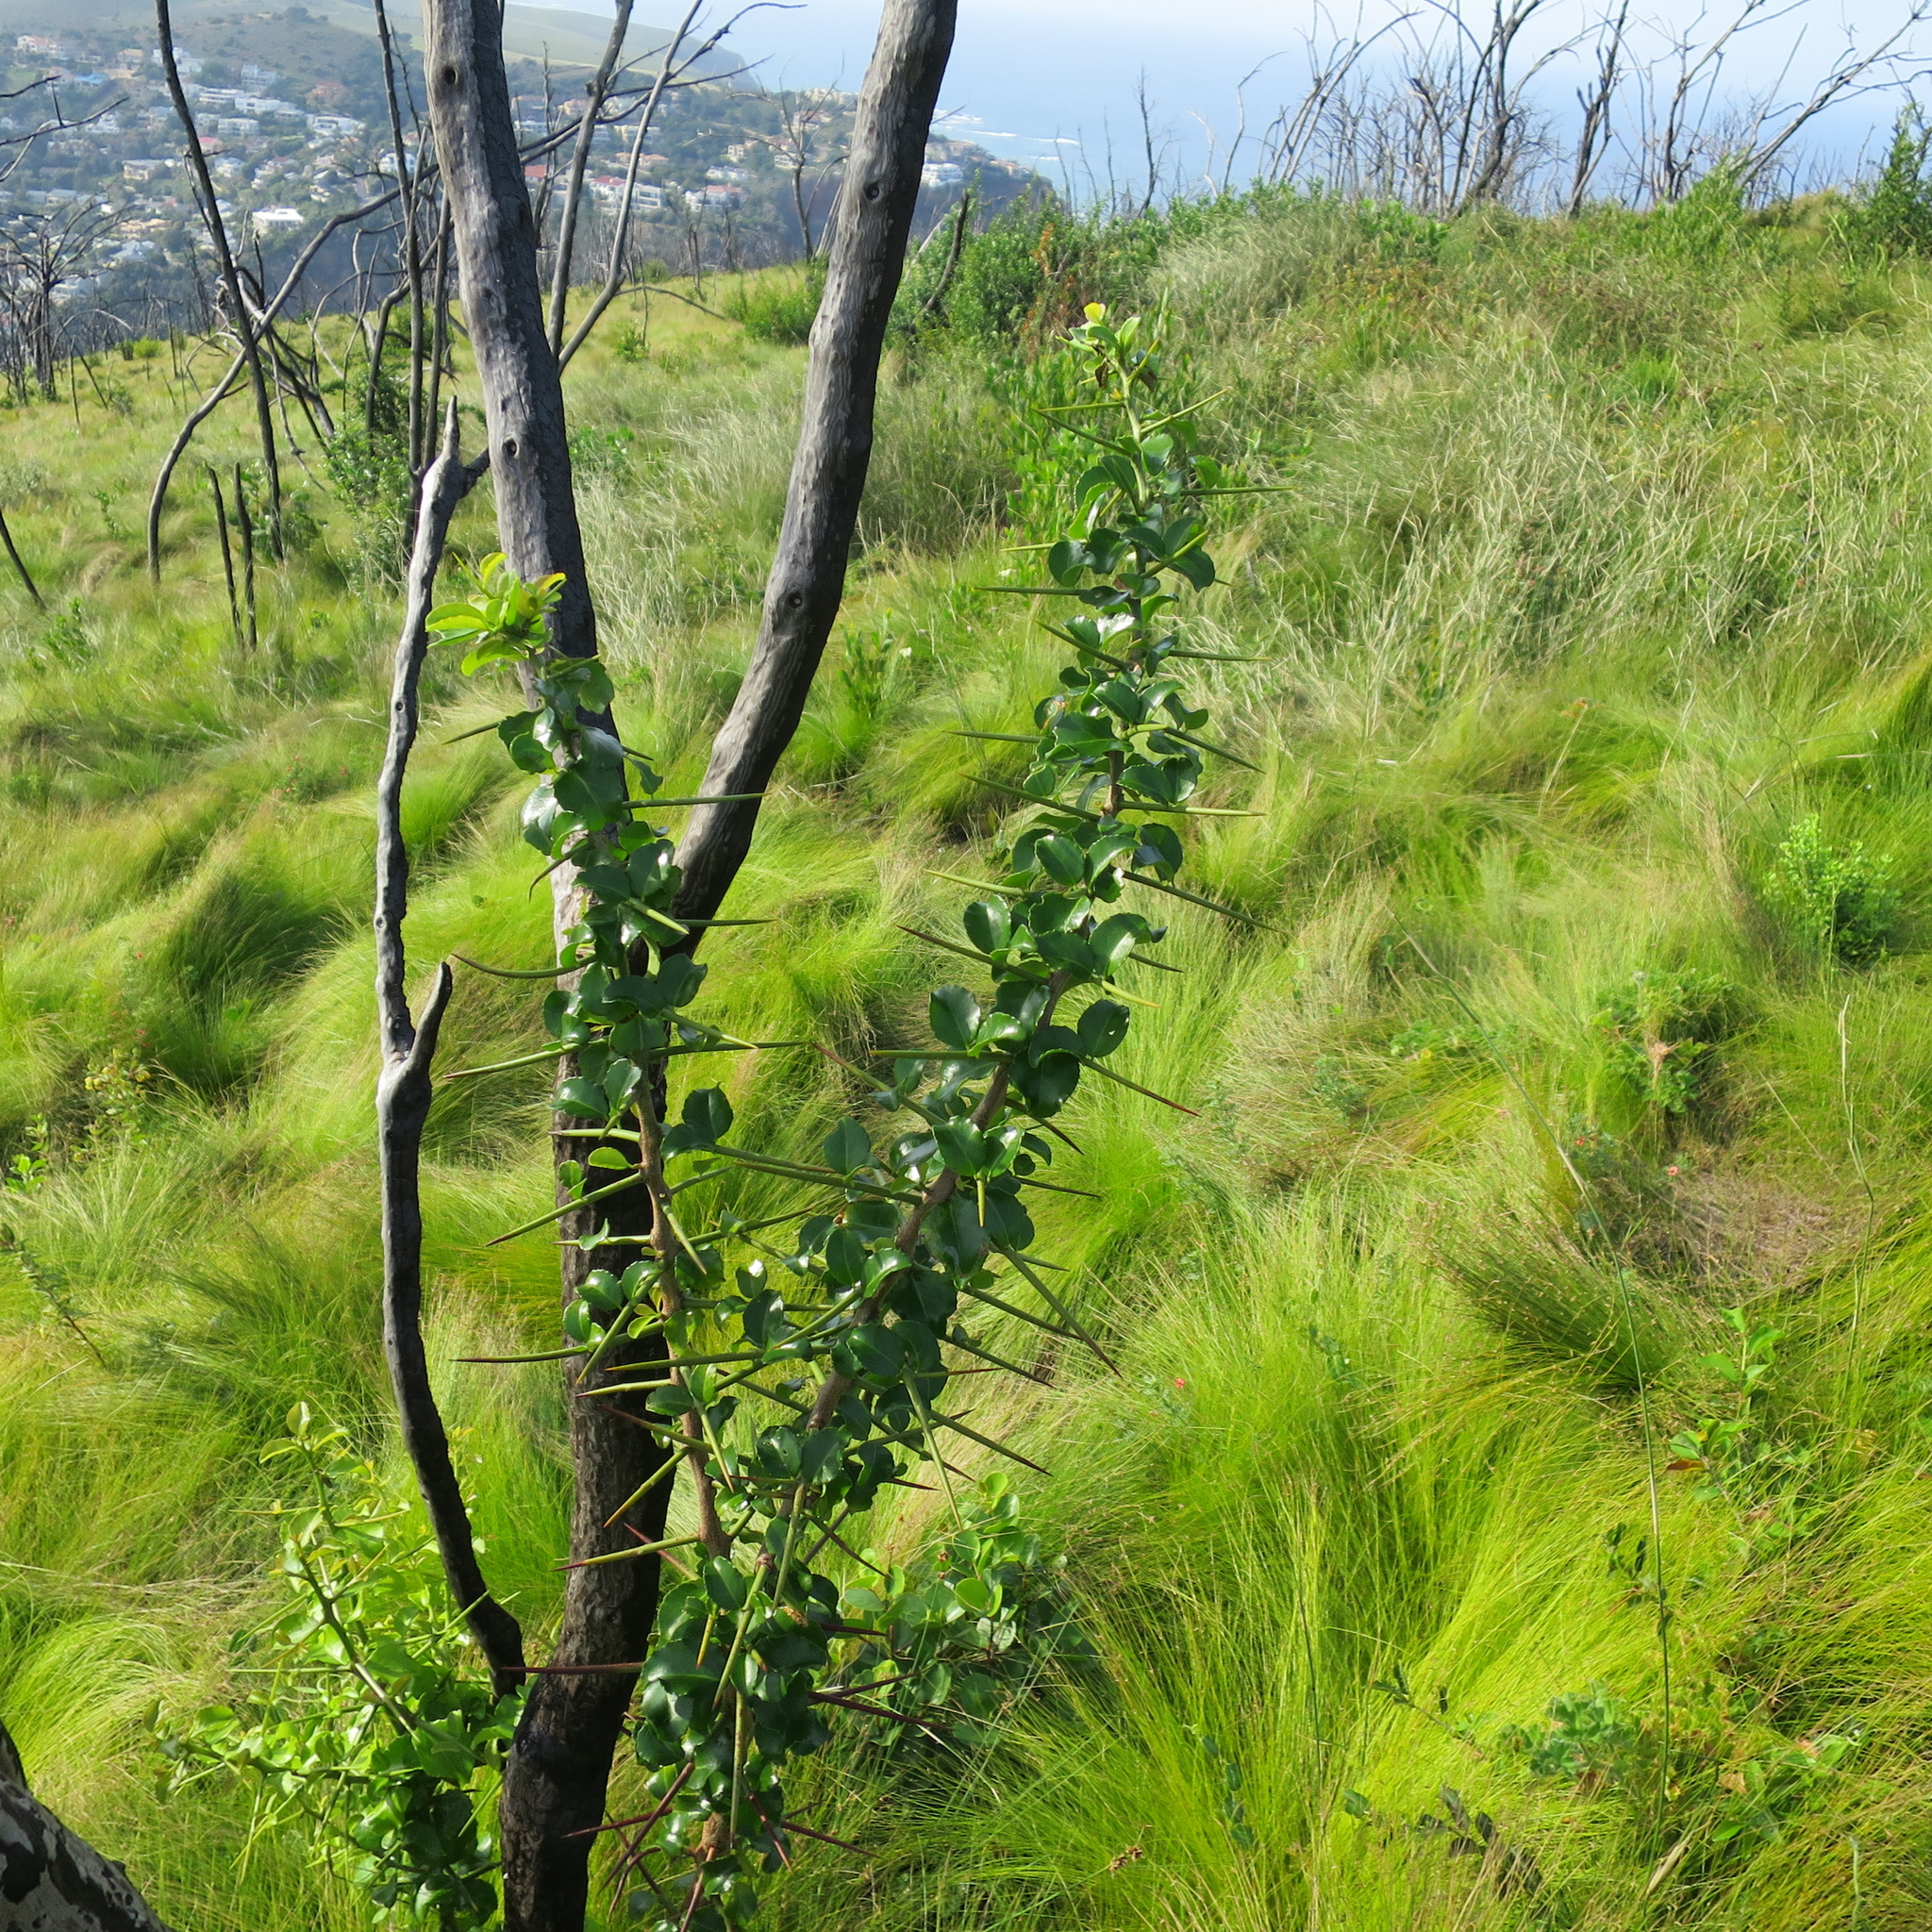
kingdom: Plantae
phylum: Tracheophyta
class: Magnoliopsida
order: Celastrales
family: Celastraceae
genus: Gymnosporia
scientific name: Gymnosporia nemorosa
